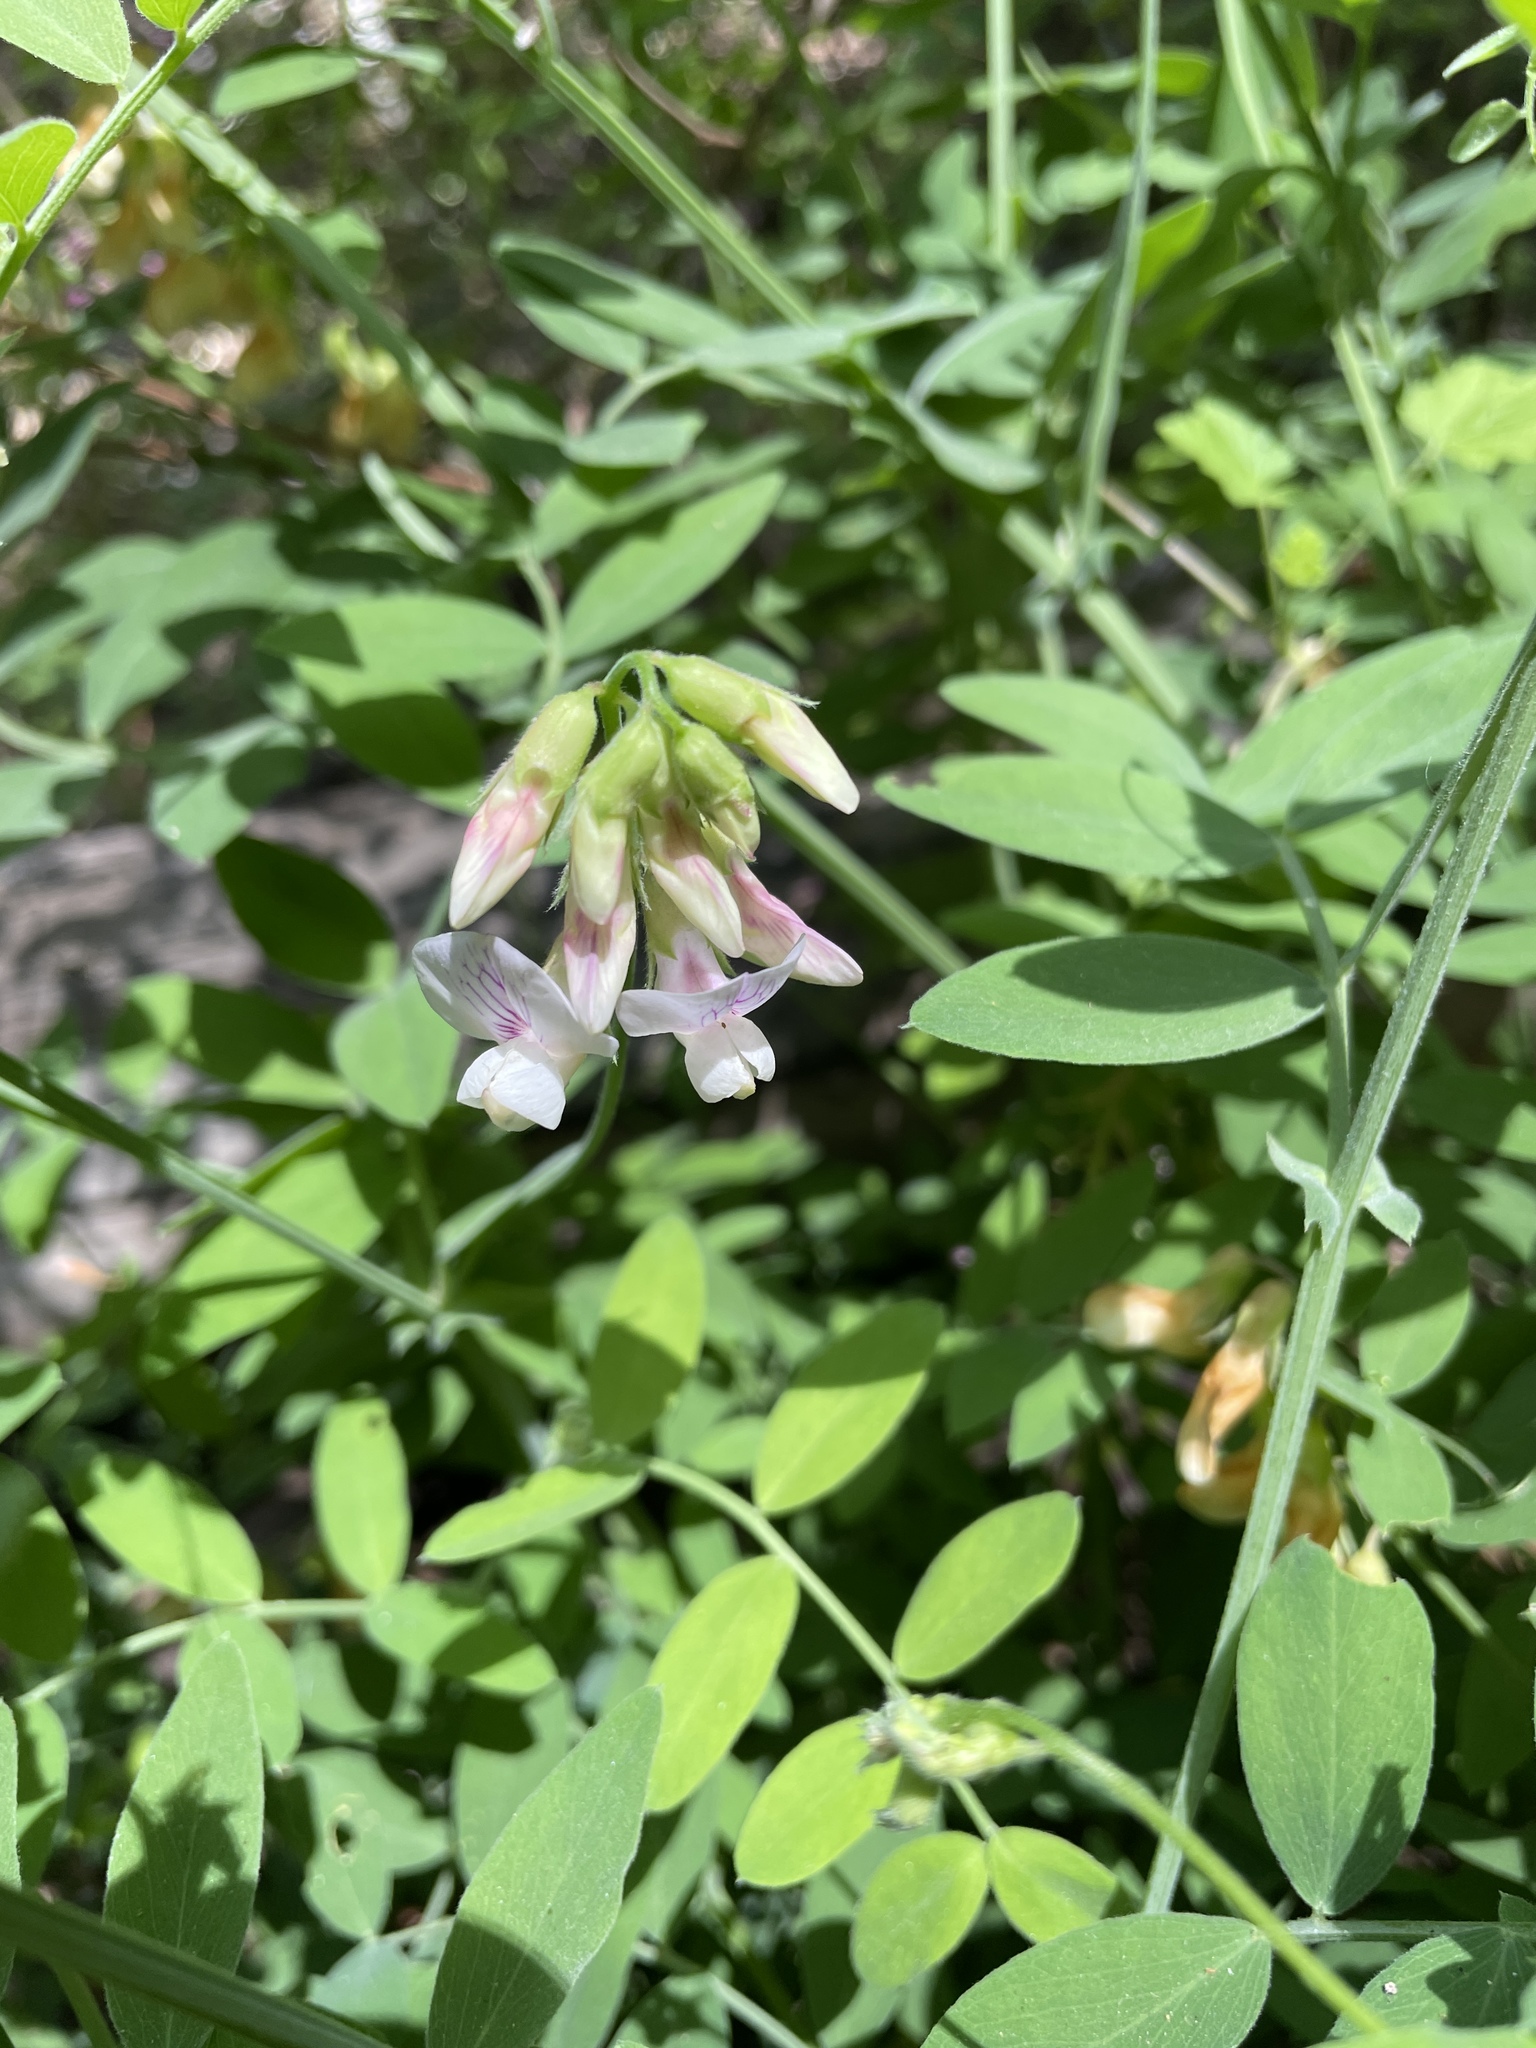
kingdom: Plantae
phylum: Tracheophyta
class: Magnoliopsida
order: Fabales
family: Fabaceae
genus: Lathyrus
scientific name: Lathyrus vestitus
